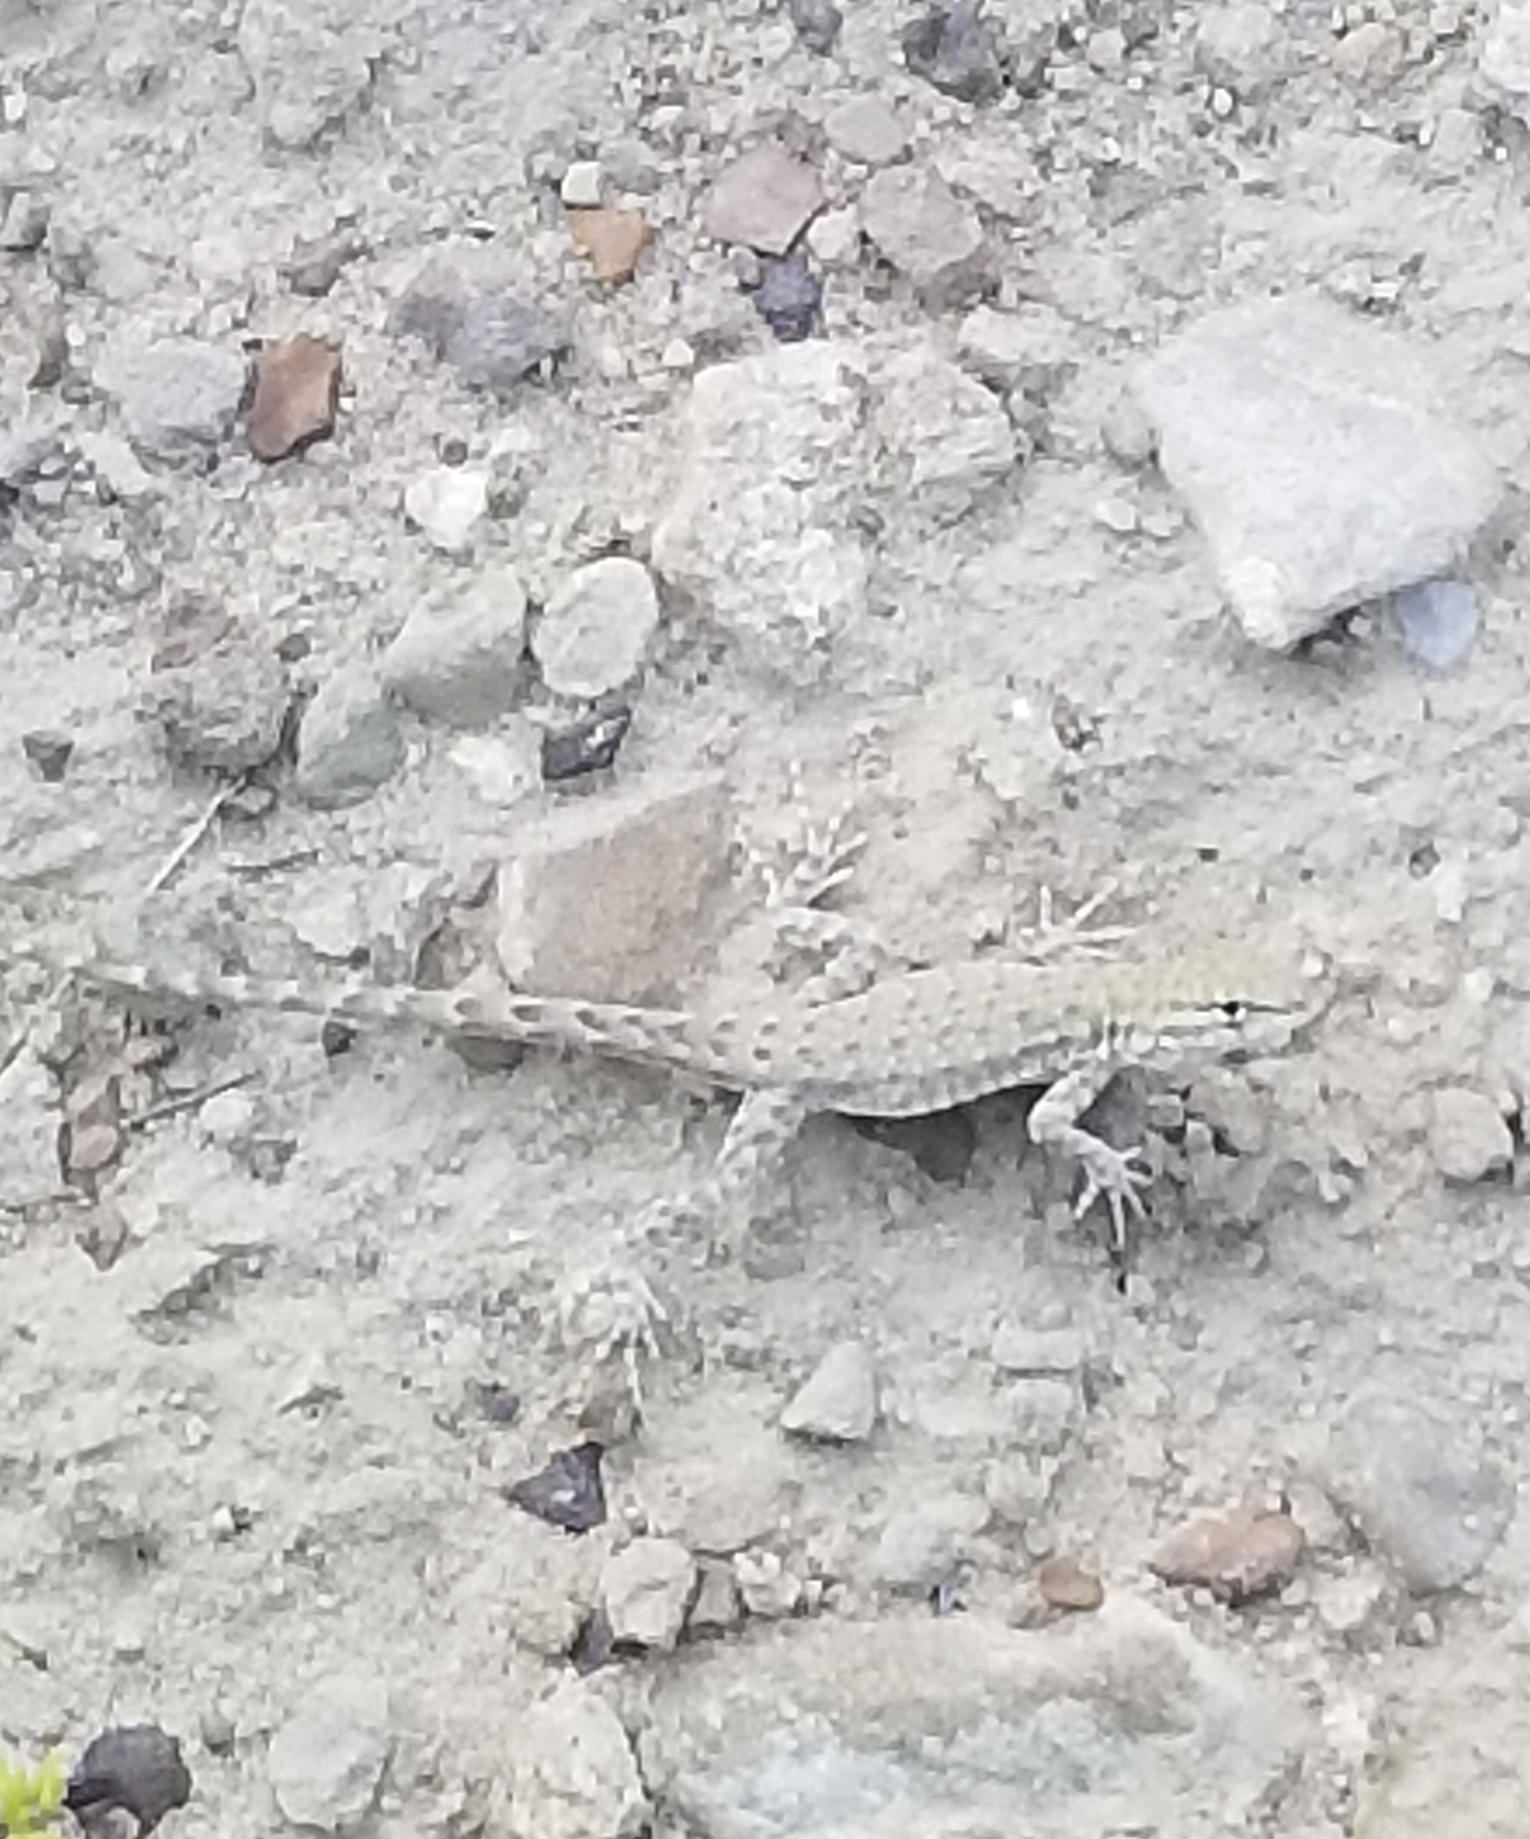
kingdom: Animalia
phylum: Chordata
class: Squamata
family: Phrynosomatidae
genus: Uta
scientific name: Uta stansburiana
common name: Side-blotched lizard
